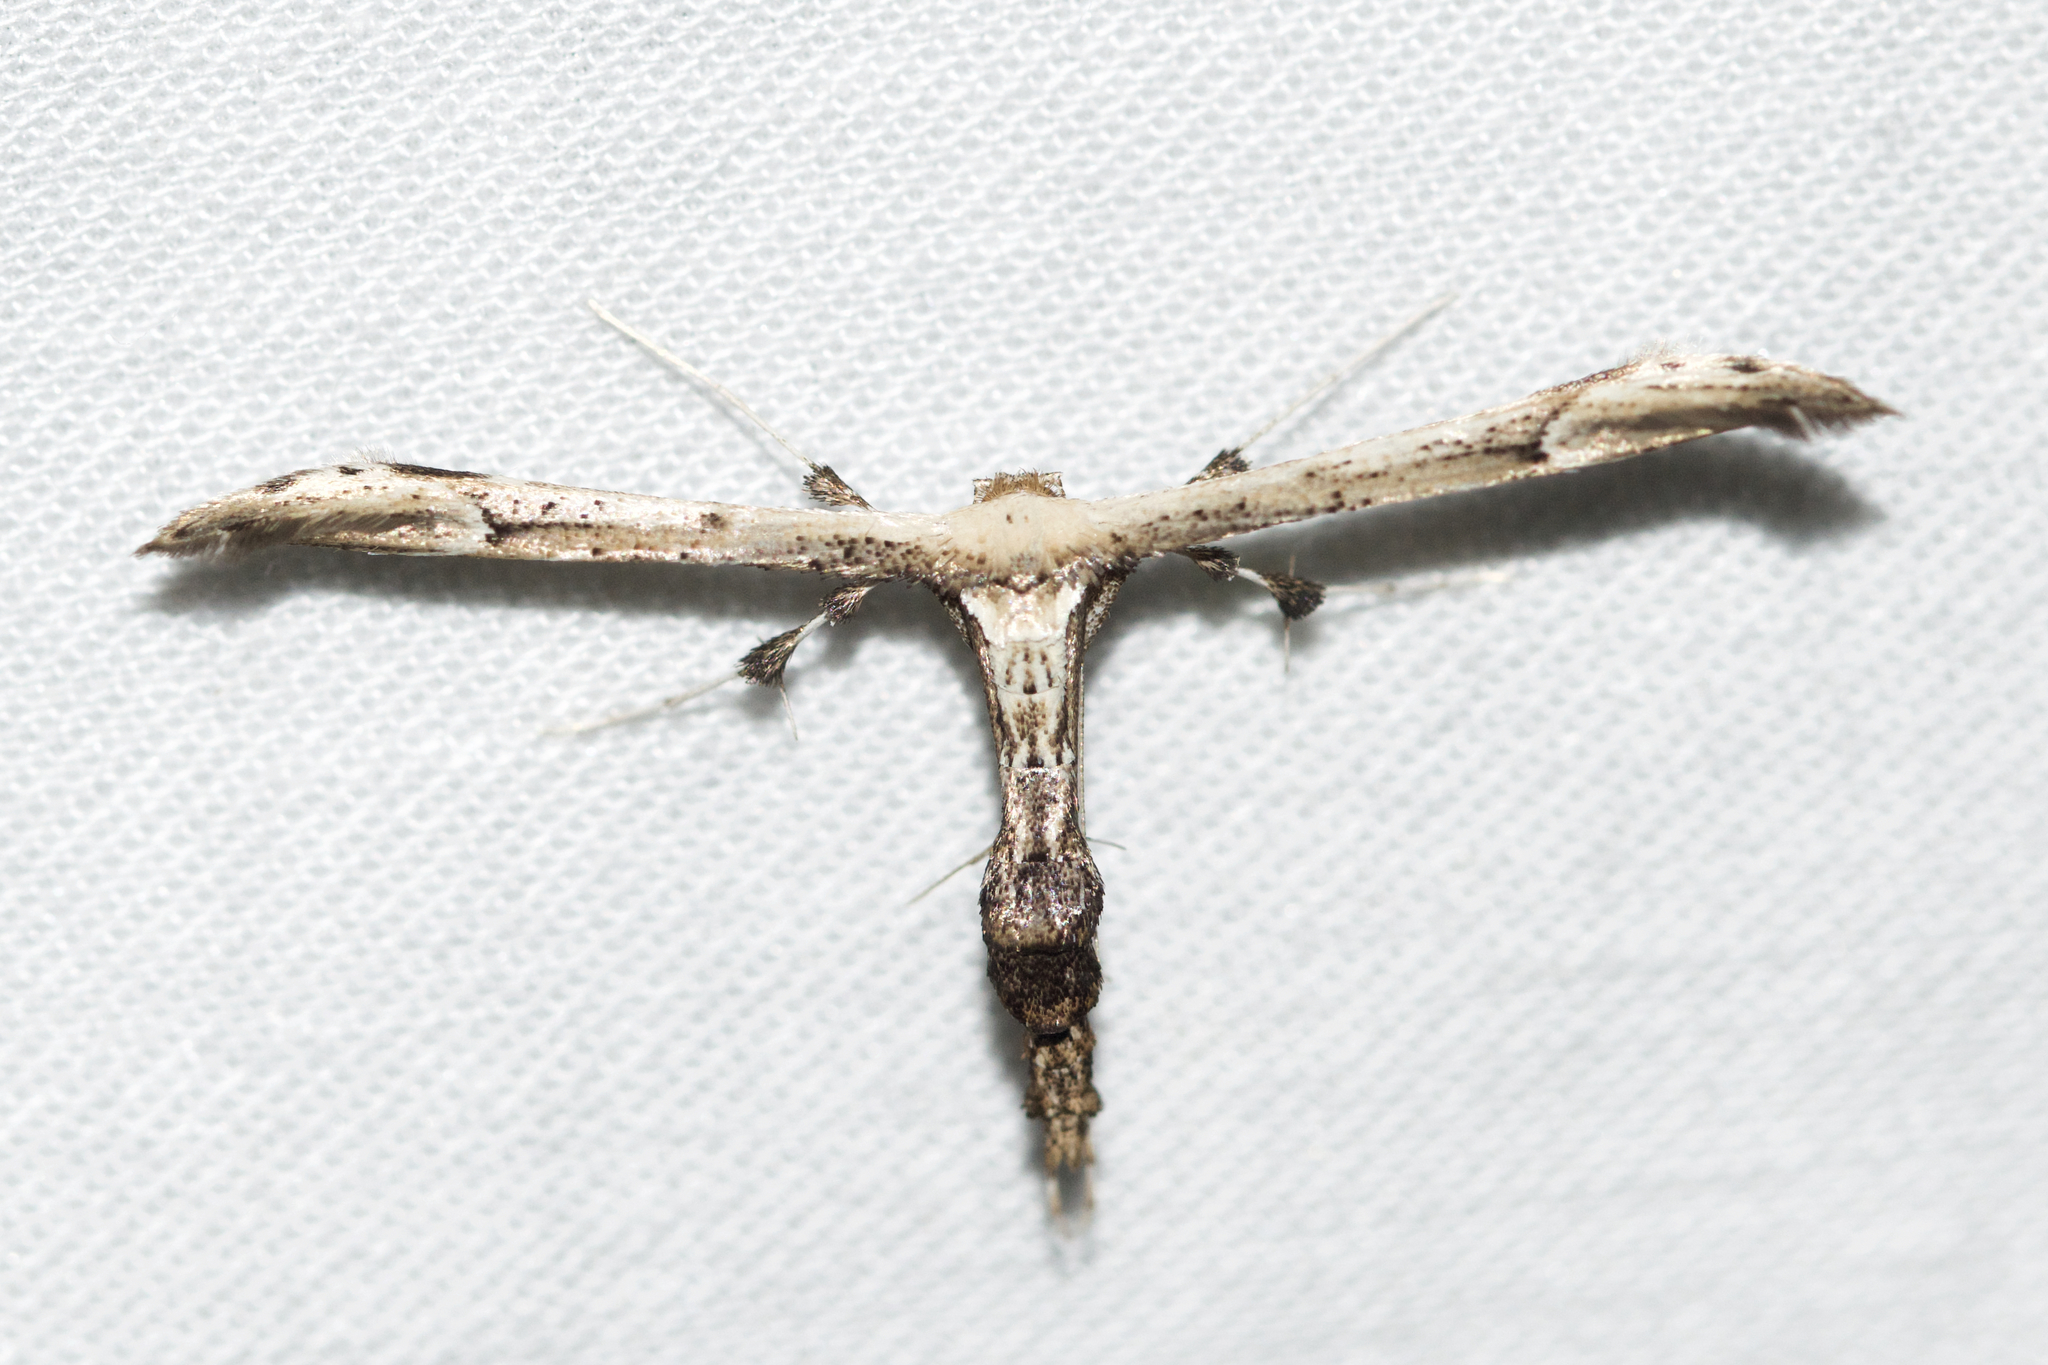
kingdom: Animalia
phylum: Arthropoda
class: Insecta
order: Lepidoptera
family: Pterophoridae
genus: Oidaematophorus
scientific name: Oidaematophorus eupatorii
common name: Eupatorium plume moth
